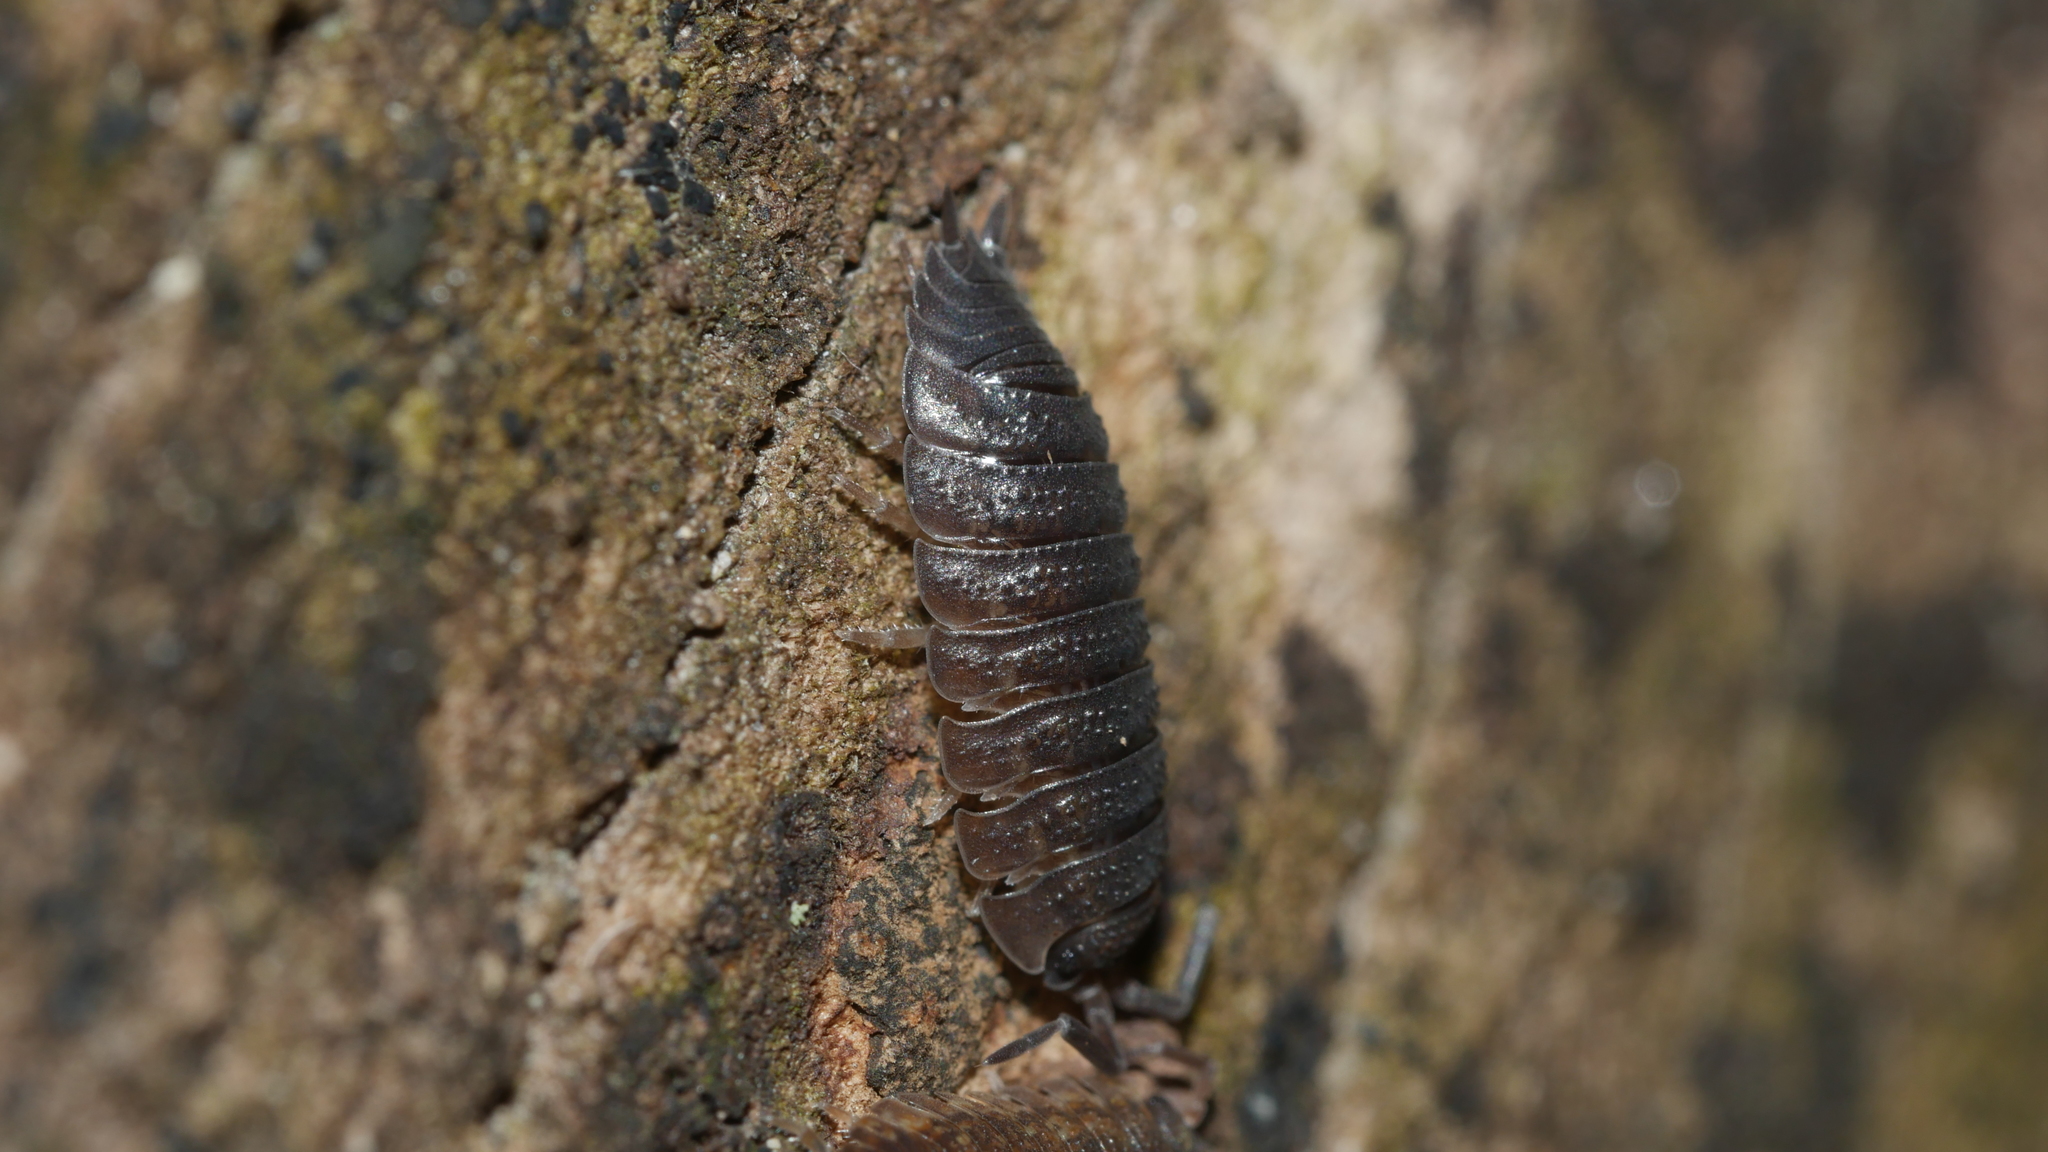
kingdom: Animalia
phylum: Arthropoda
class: Malacostraca
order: Isopoda
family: Porcellionidae
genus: Porcellio
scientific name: Porcellio scaber
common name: Common rough woodlouse
